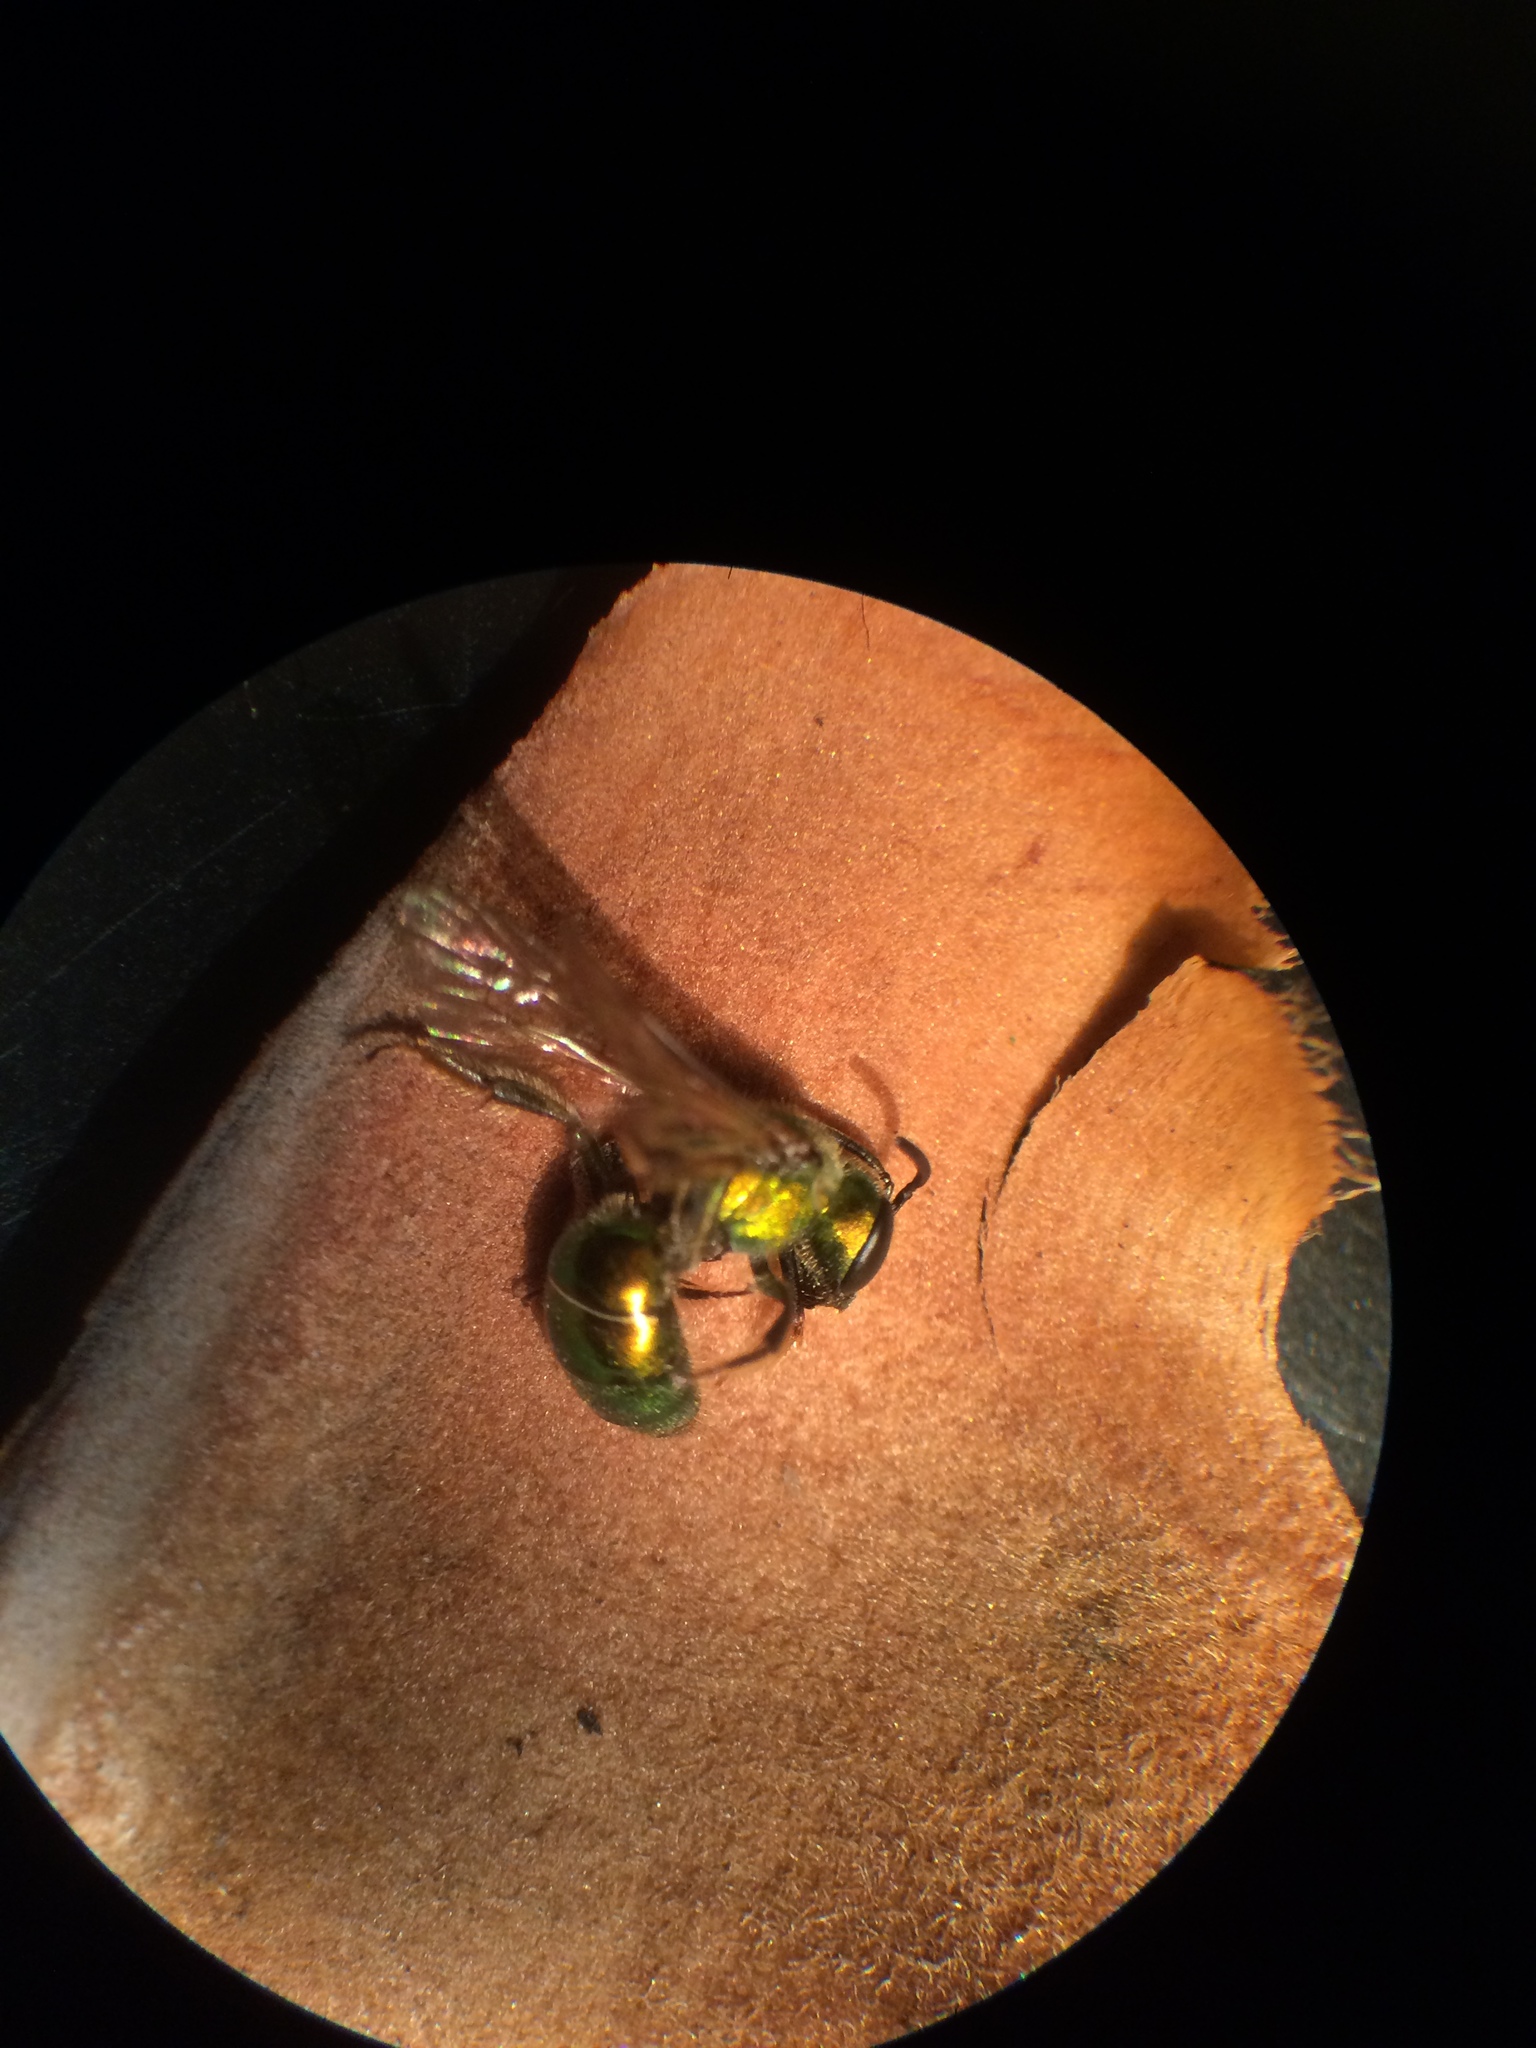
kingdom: Animalia
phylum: Arthropoda
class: Insecta
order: Hymenoptera
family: Halictidae
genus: Augochlora
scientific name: Augochlora pura
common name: Pure green sweat bee
